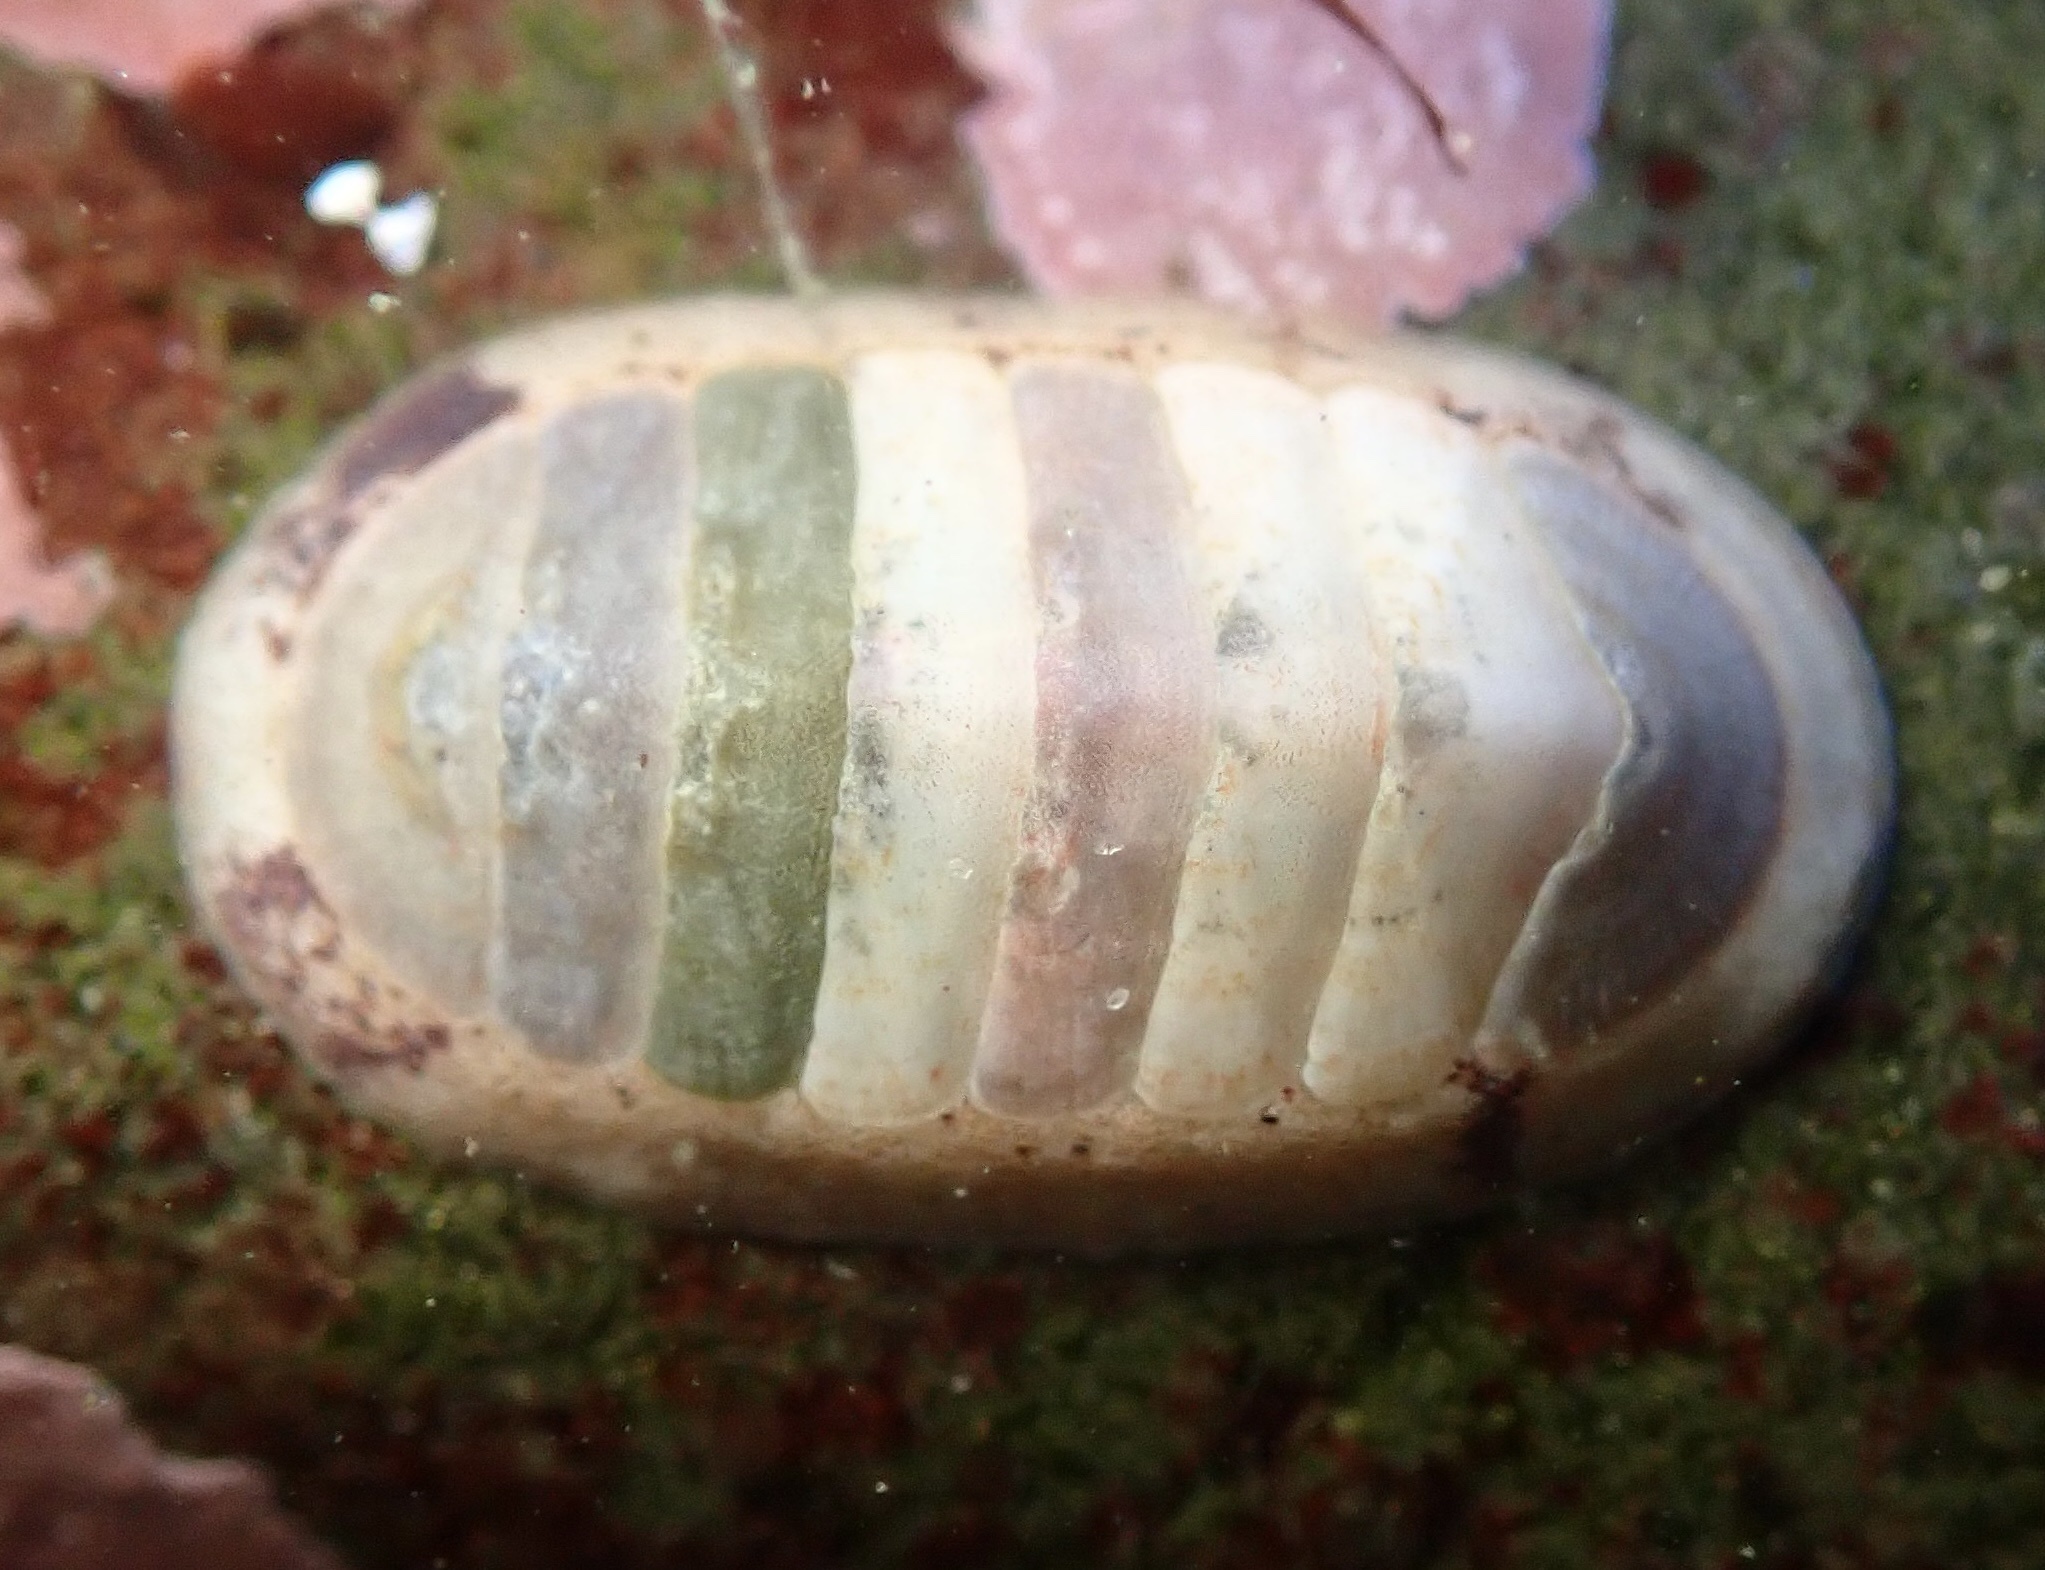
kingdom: Animalia
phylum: Mollusca
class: Polyplacophora
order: Chitonida
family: Ischnochitonidae
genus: Lepidozona
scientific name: Lepidozona radians
